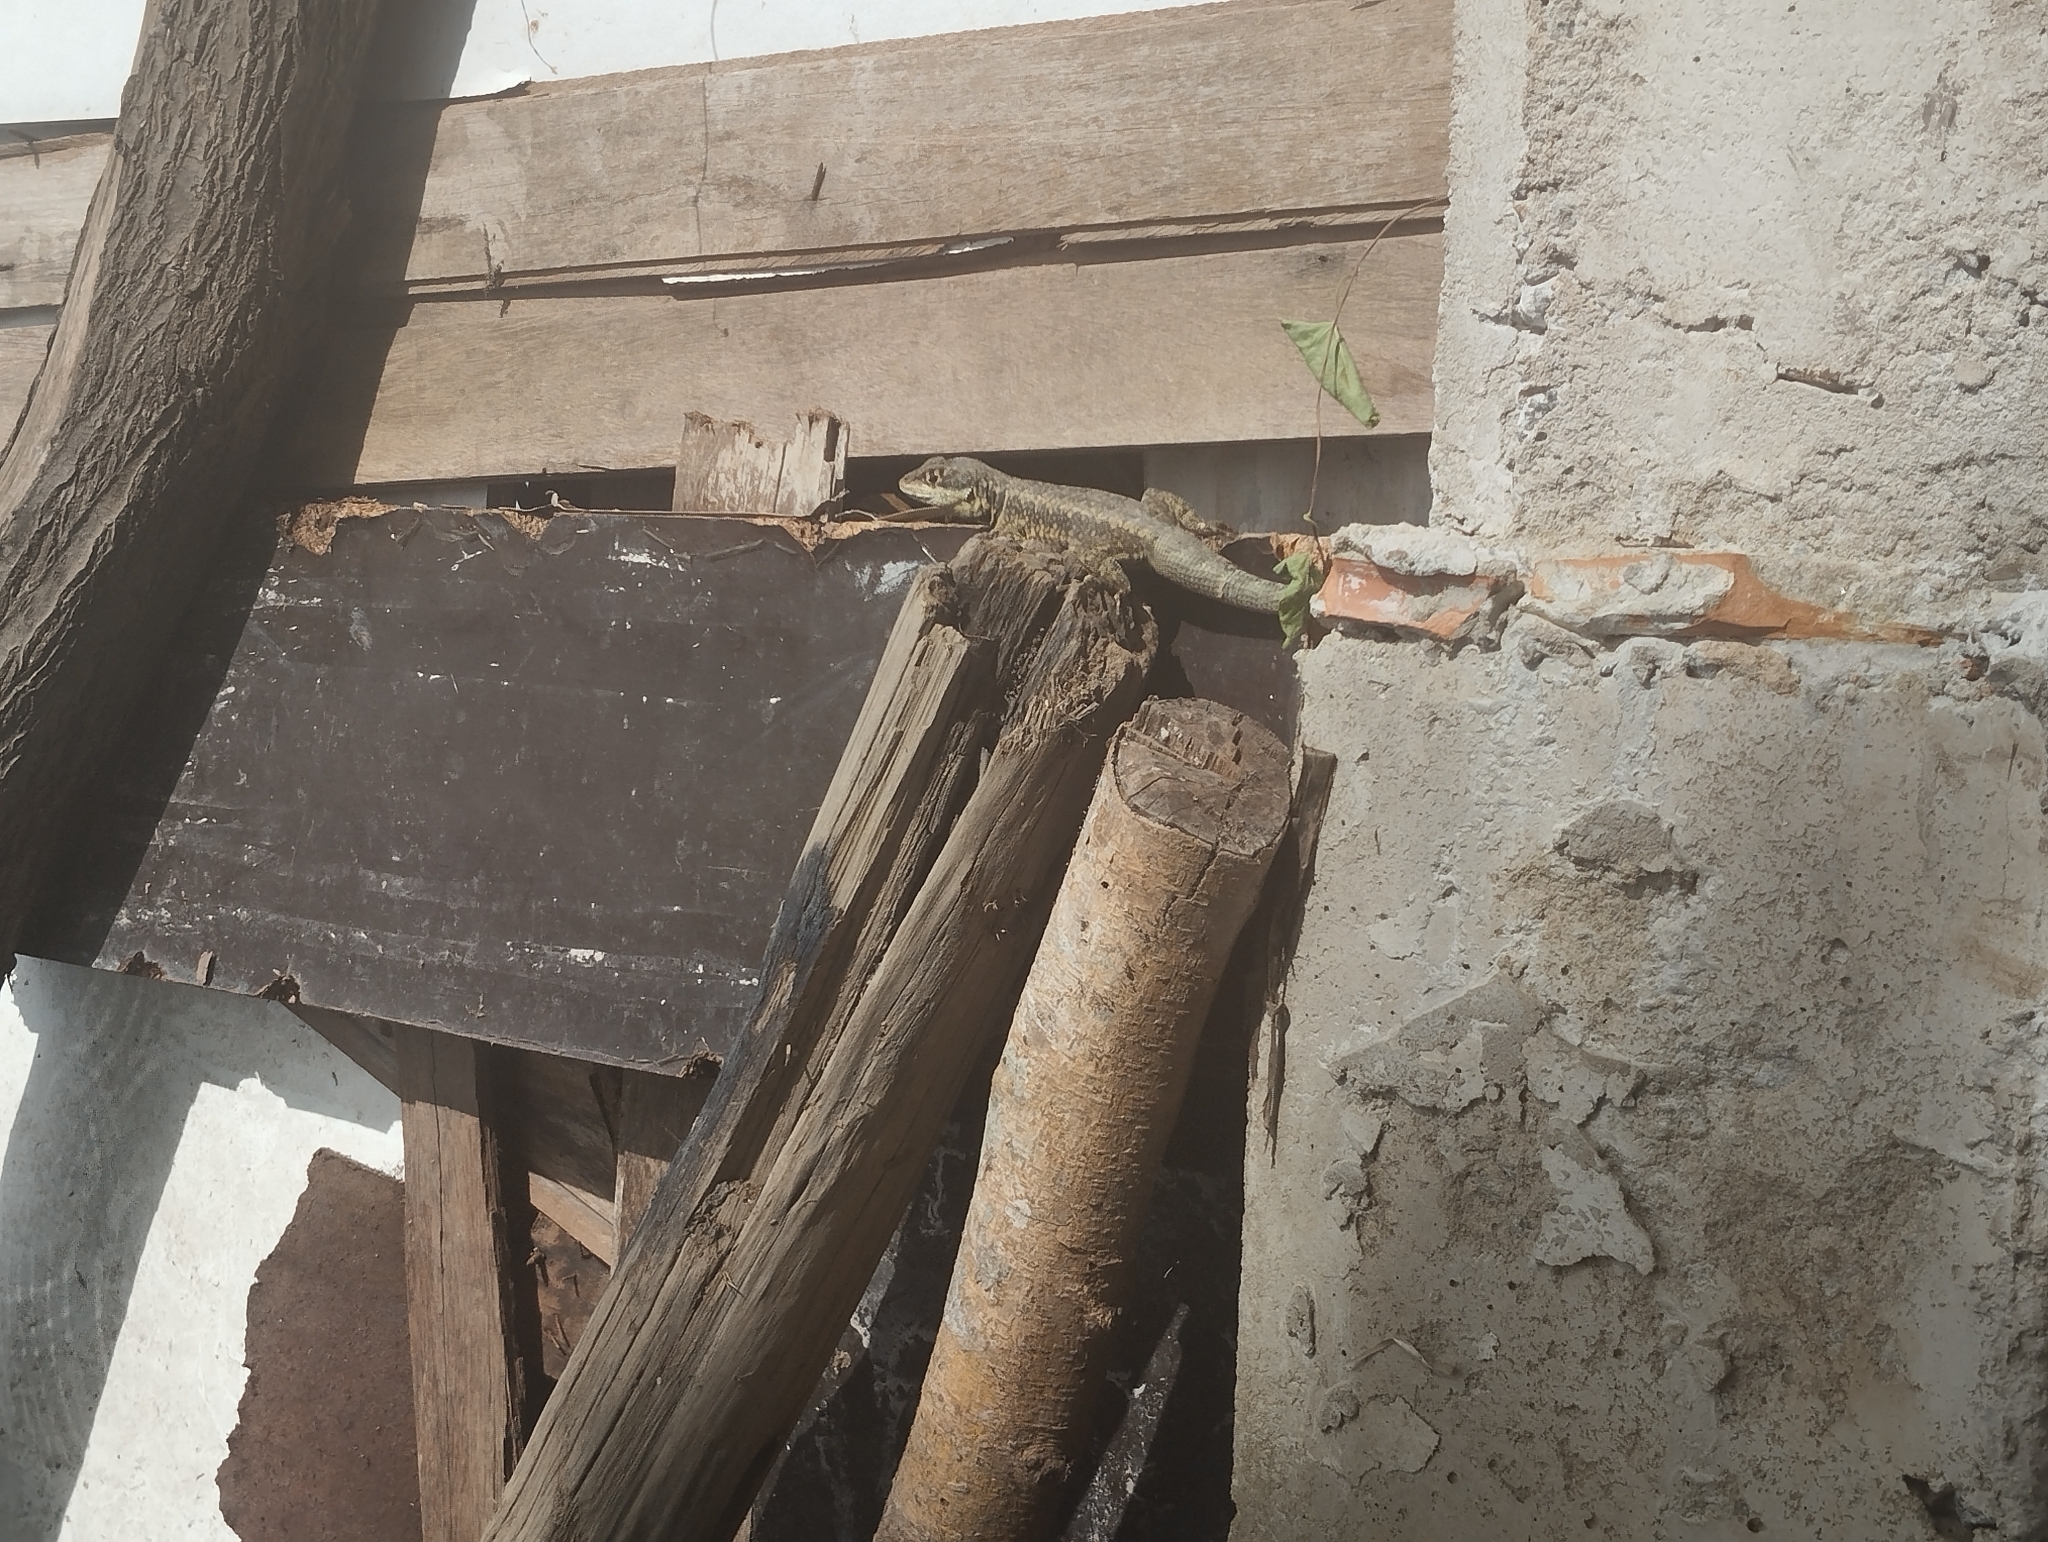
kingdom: Animalia
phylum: Chordata
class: Squamata
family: Tropiduridae
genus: Tropidurus
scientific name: Tropidurus torquatus
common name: Amazon lava lizard
